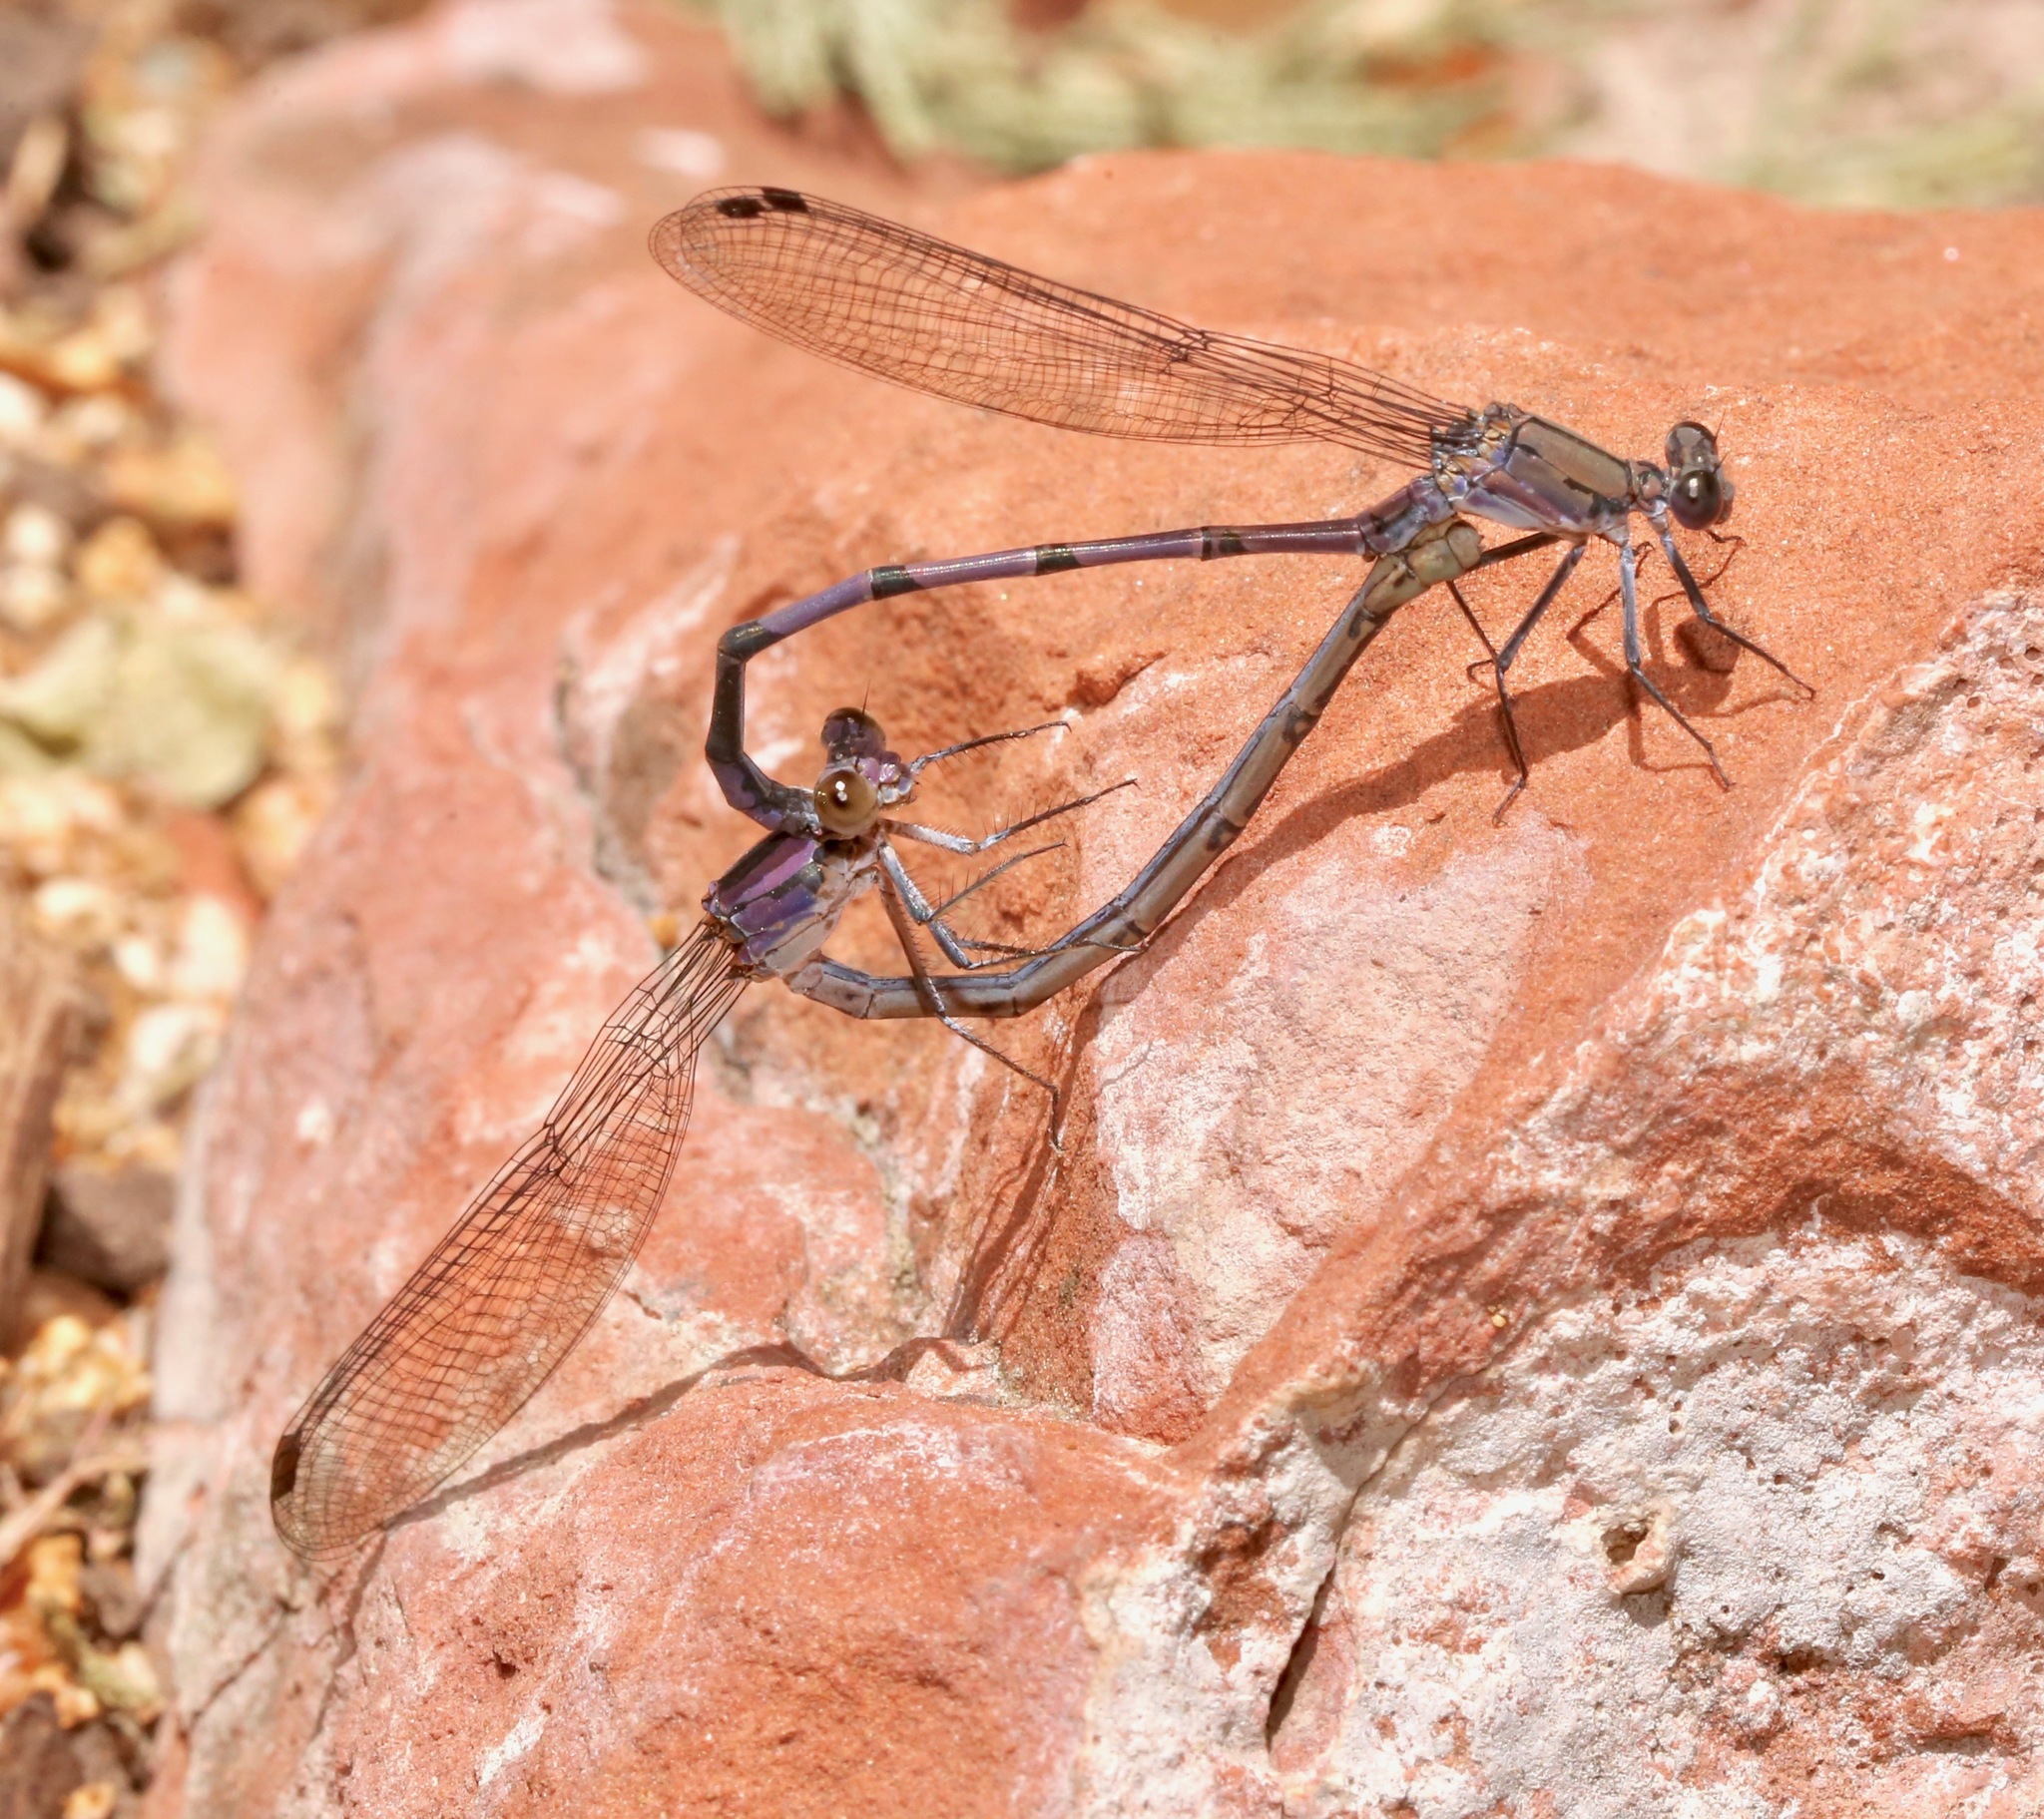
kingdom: Animalia
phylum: Arthropoda
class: Insecta
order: Odonata
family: Coenagrionidae
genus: Argia
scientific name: Argia tonto
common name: Tonto dancer
